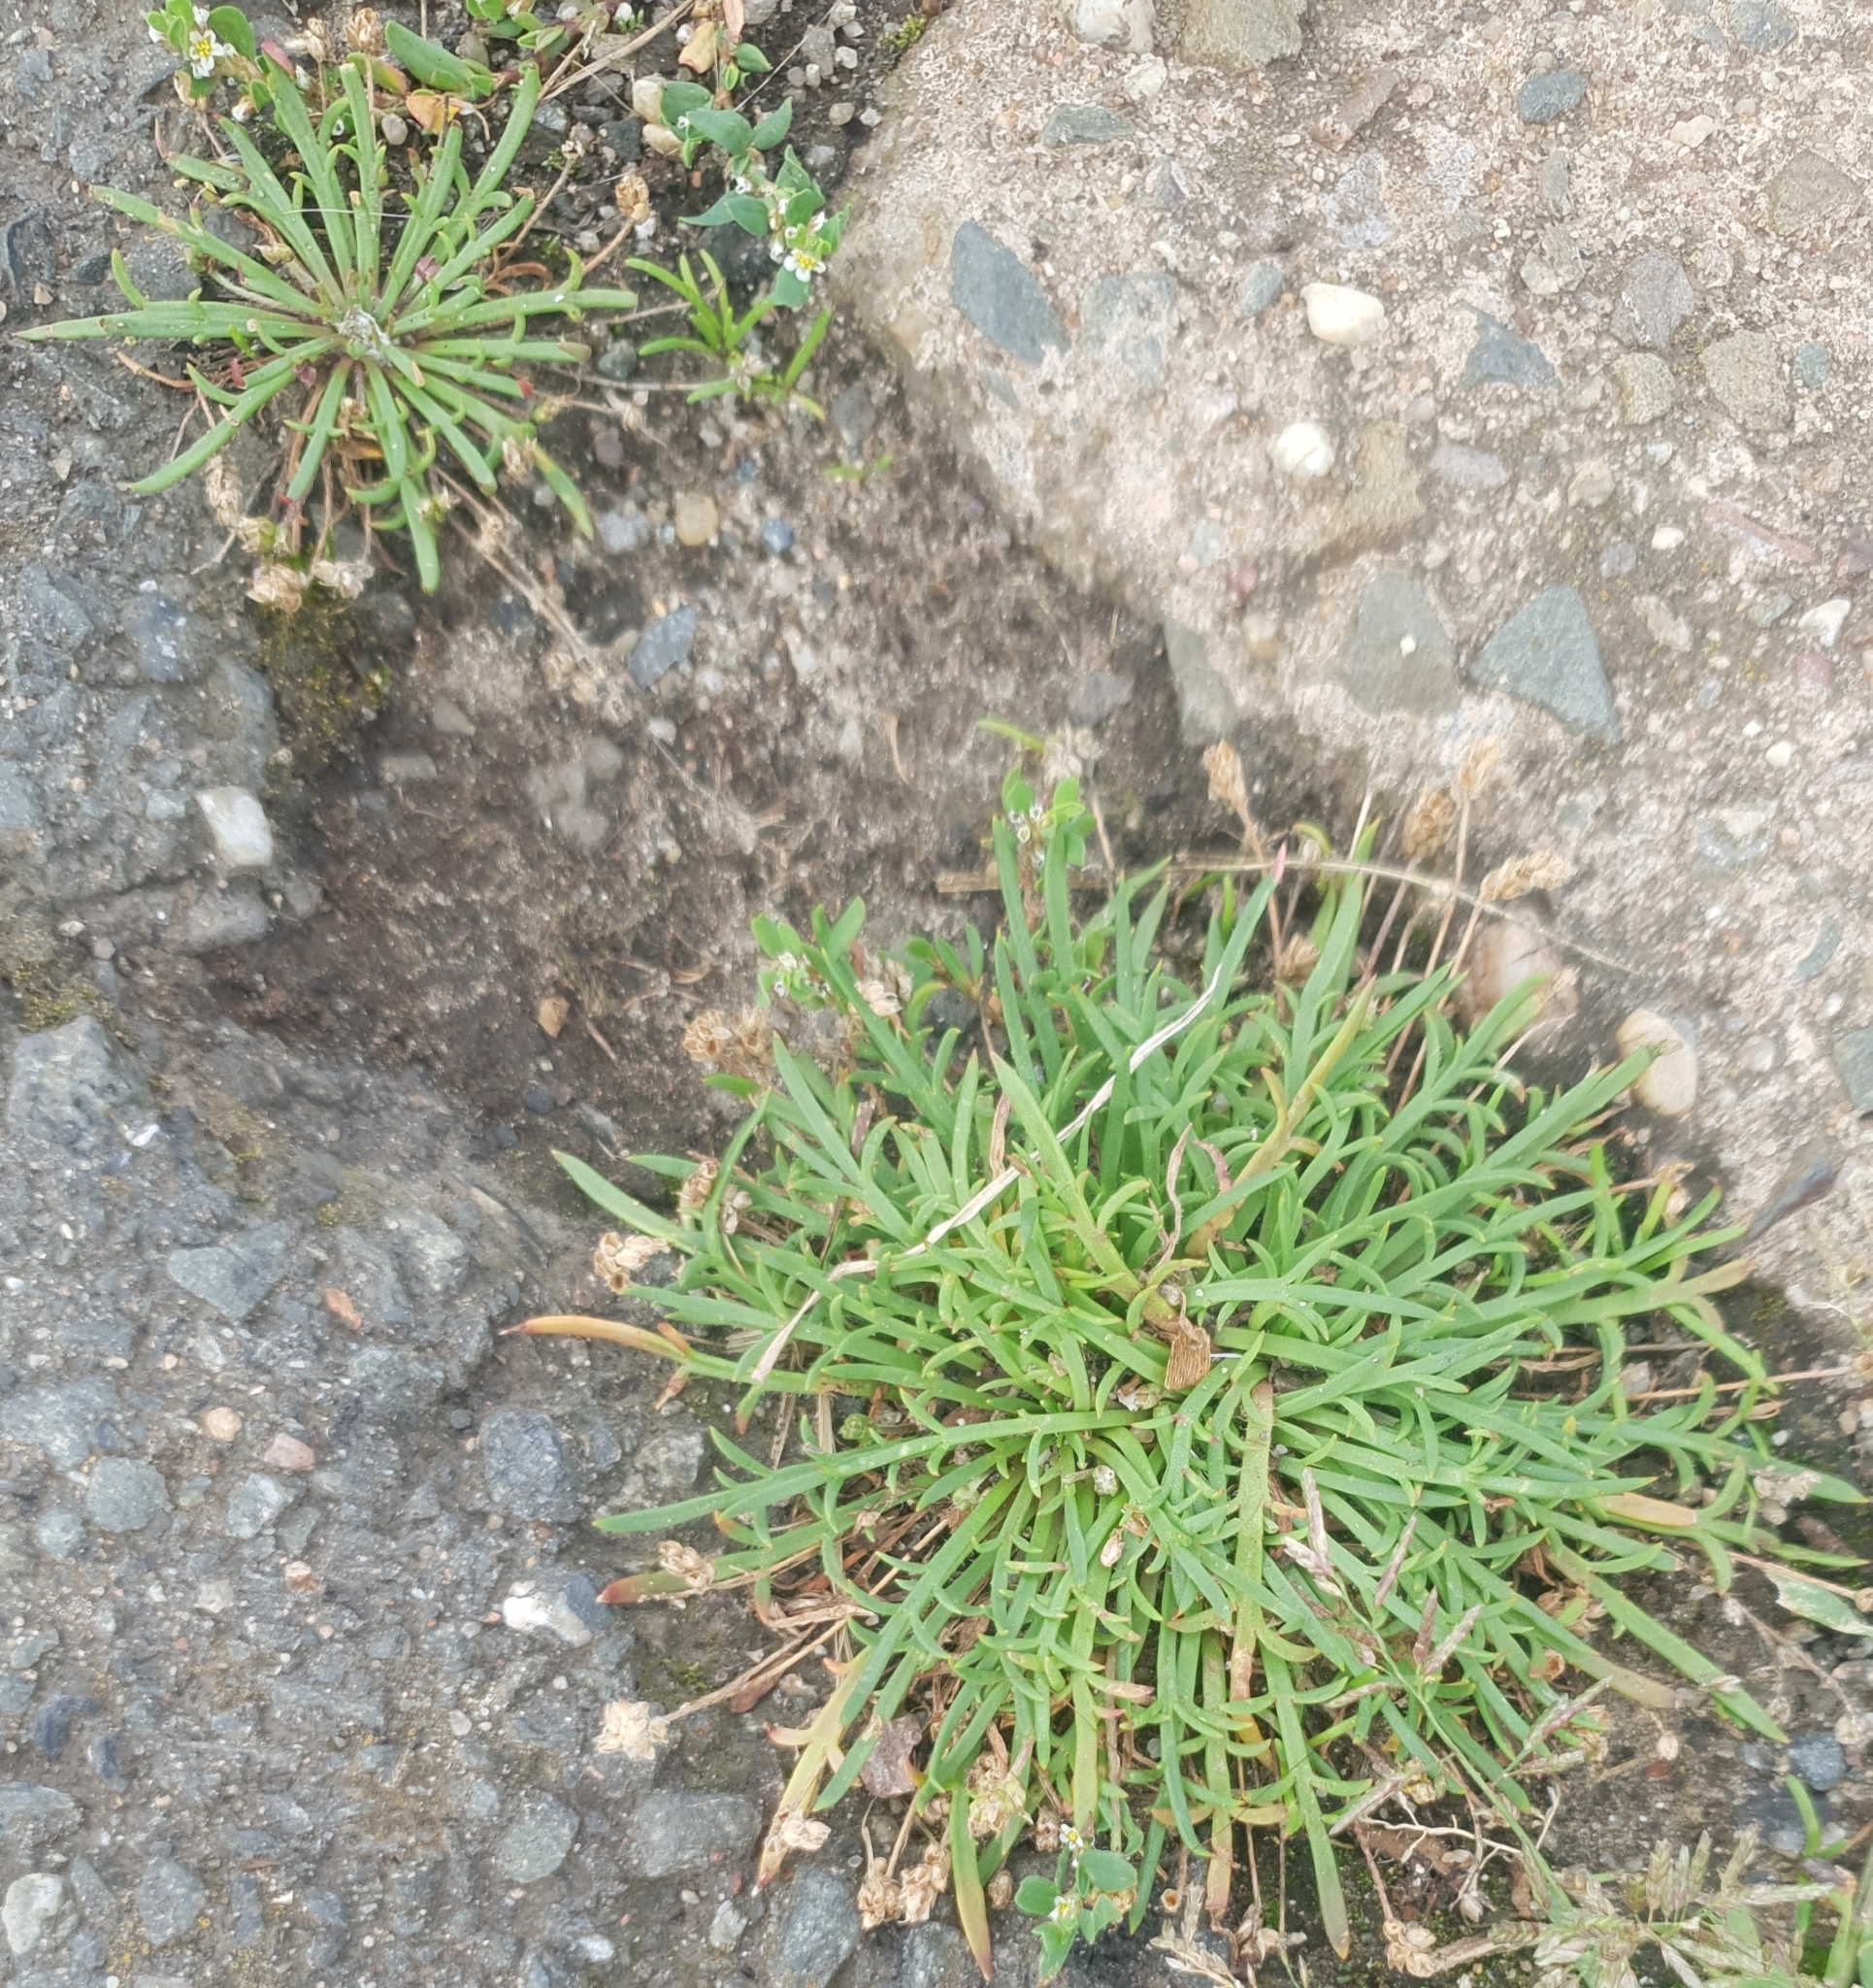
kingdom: Plantae
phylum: Tracheophyta
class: Magnoliopsida
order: Lamiales
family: Plantaginaceae
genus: Plantago
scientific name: Plantago coronopus
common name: Buck's-horn plantain
